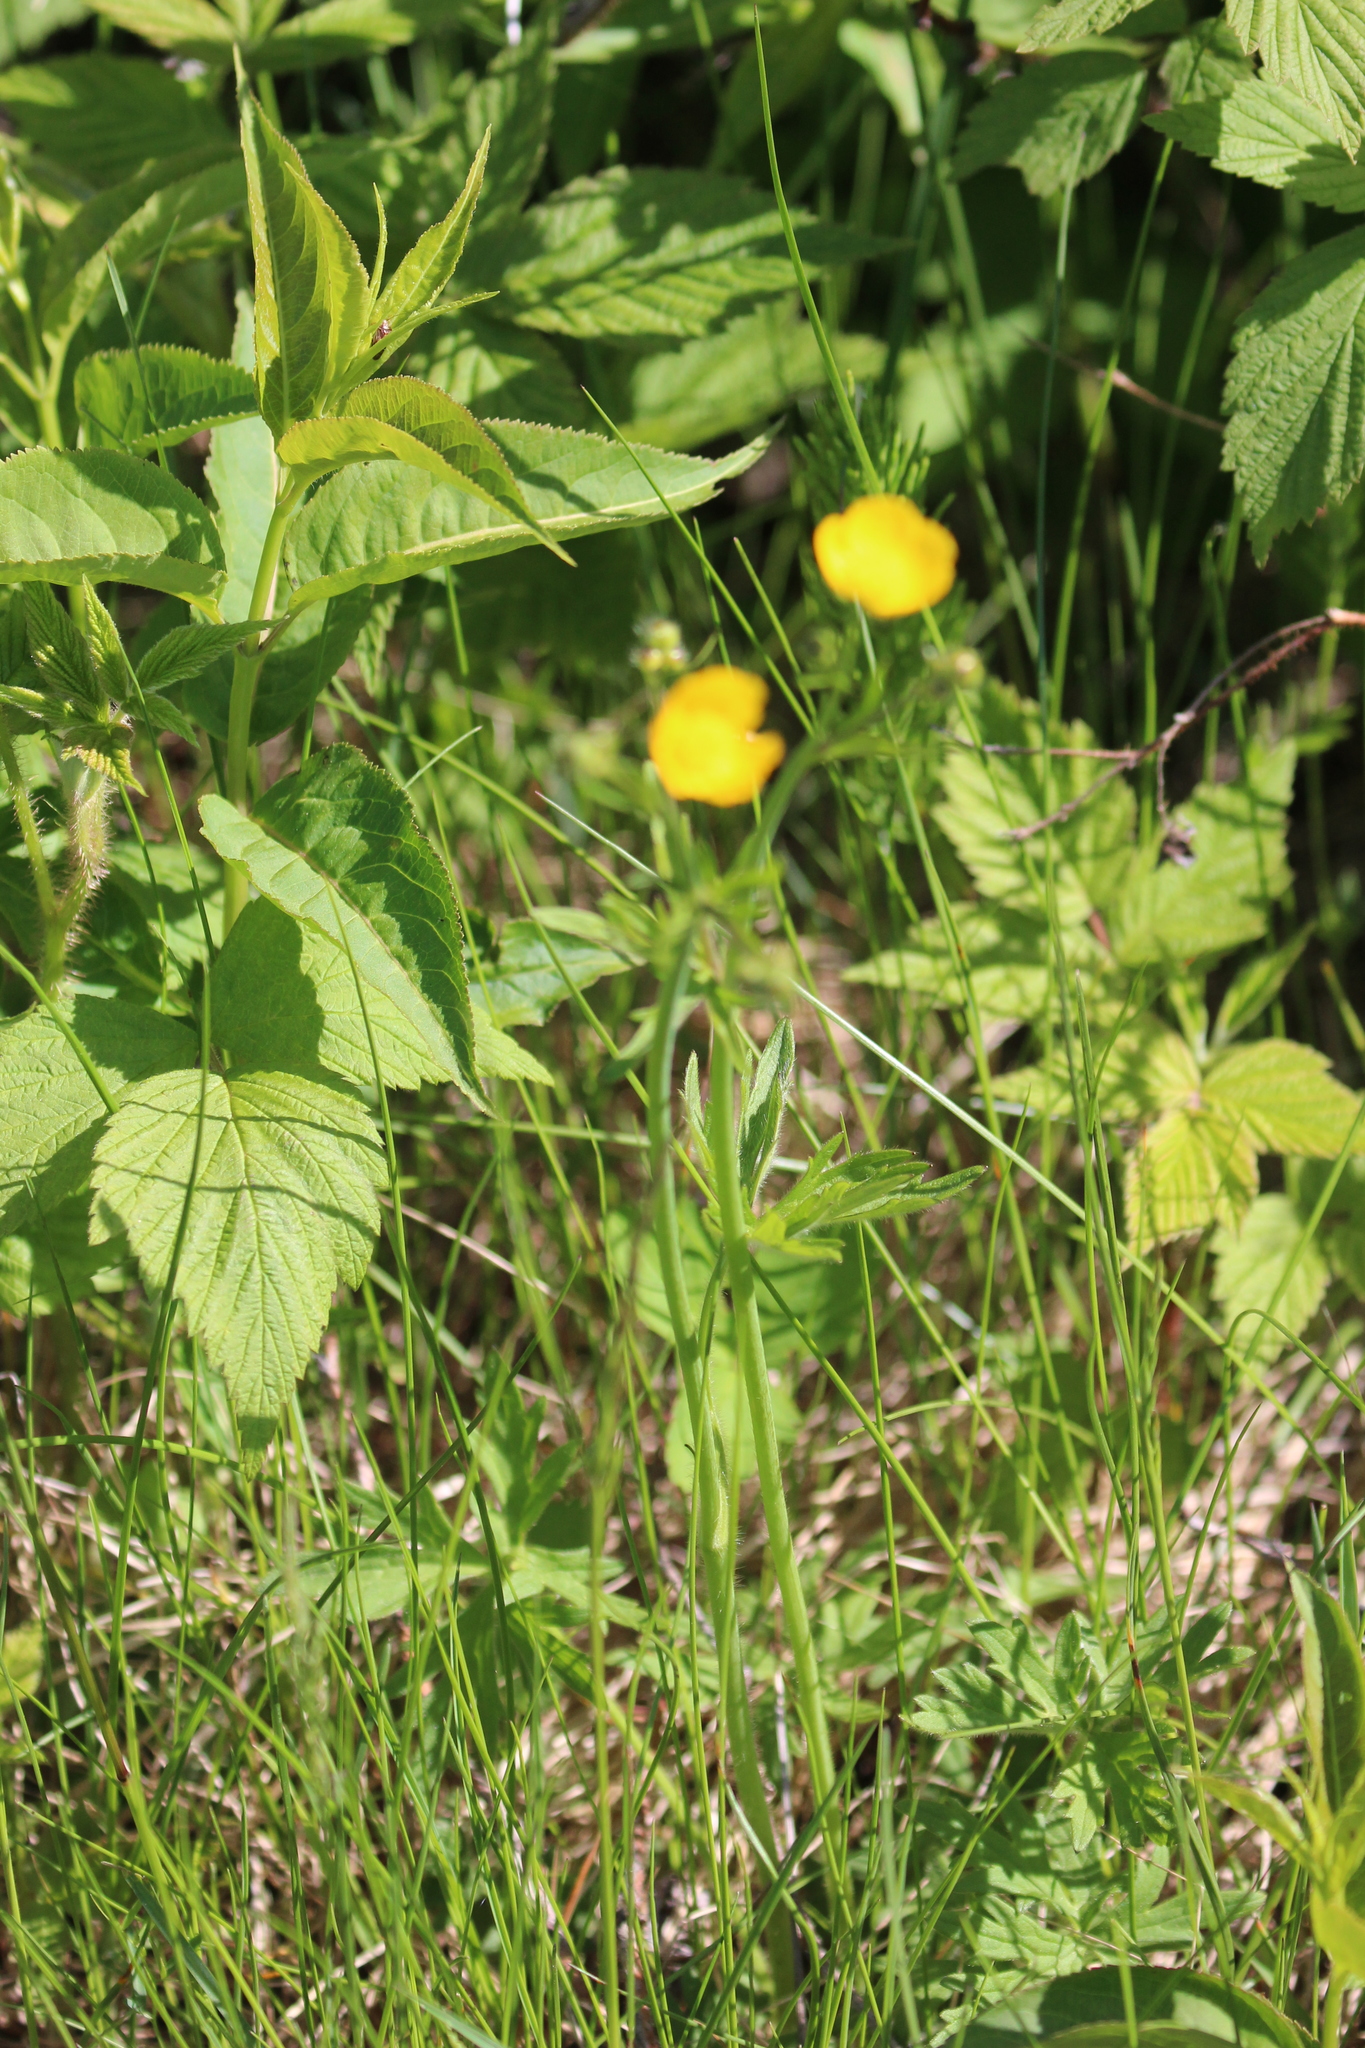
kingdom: Plantae
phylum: Tracheophyta
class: Magnoliopsida
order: Ranunculales
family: Ranunculaceae
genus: Ranunculus
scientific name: Ranunculus acris
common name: Meadow buttercup
